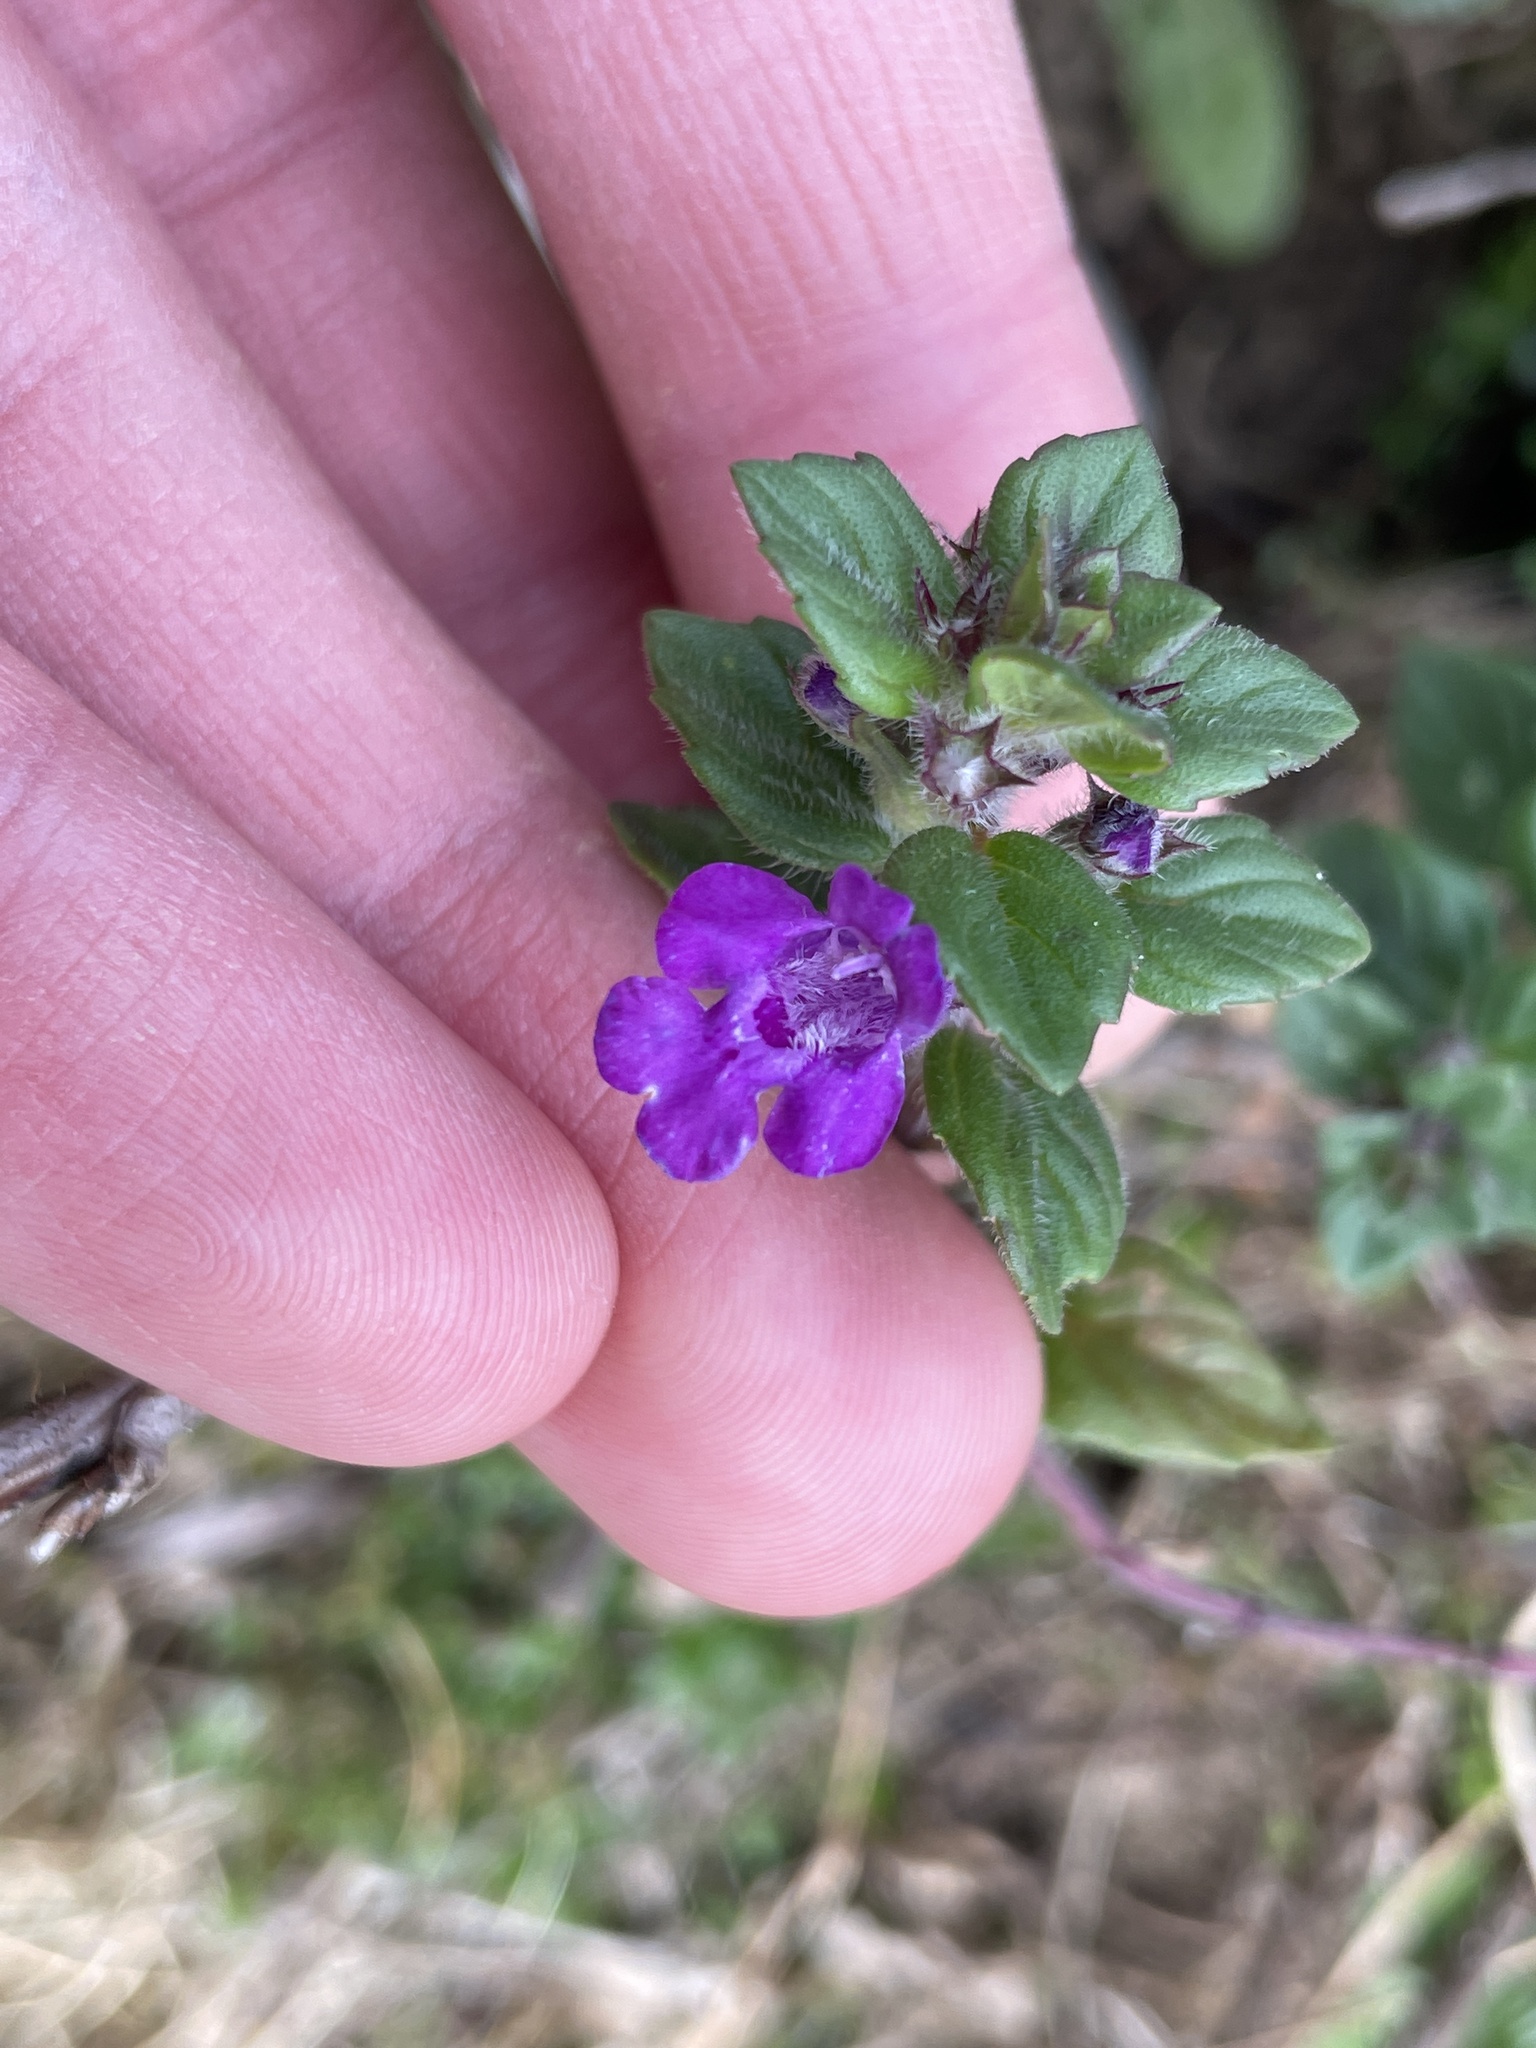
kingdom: Plantae
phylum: Tracheophyta
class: Magnoliopsida
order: Lamiales
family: Lamiaceae
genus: Clinopodium
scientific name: Clinopodium alpinum
